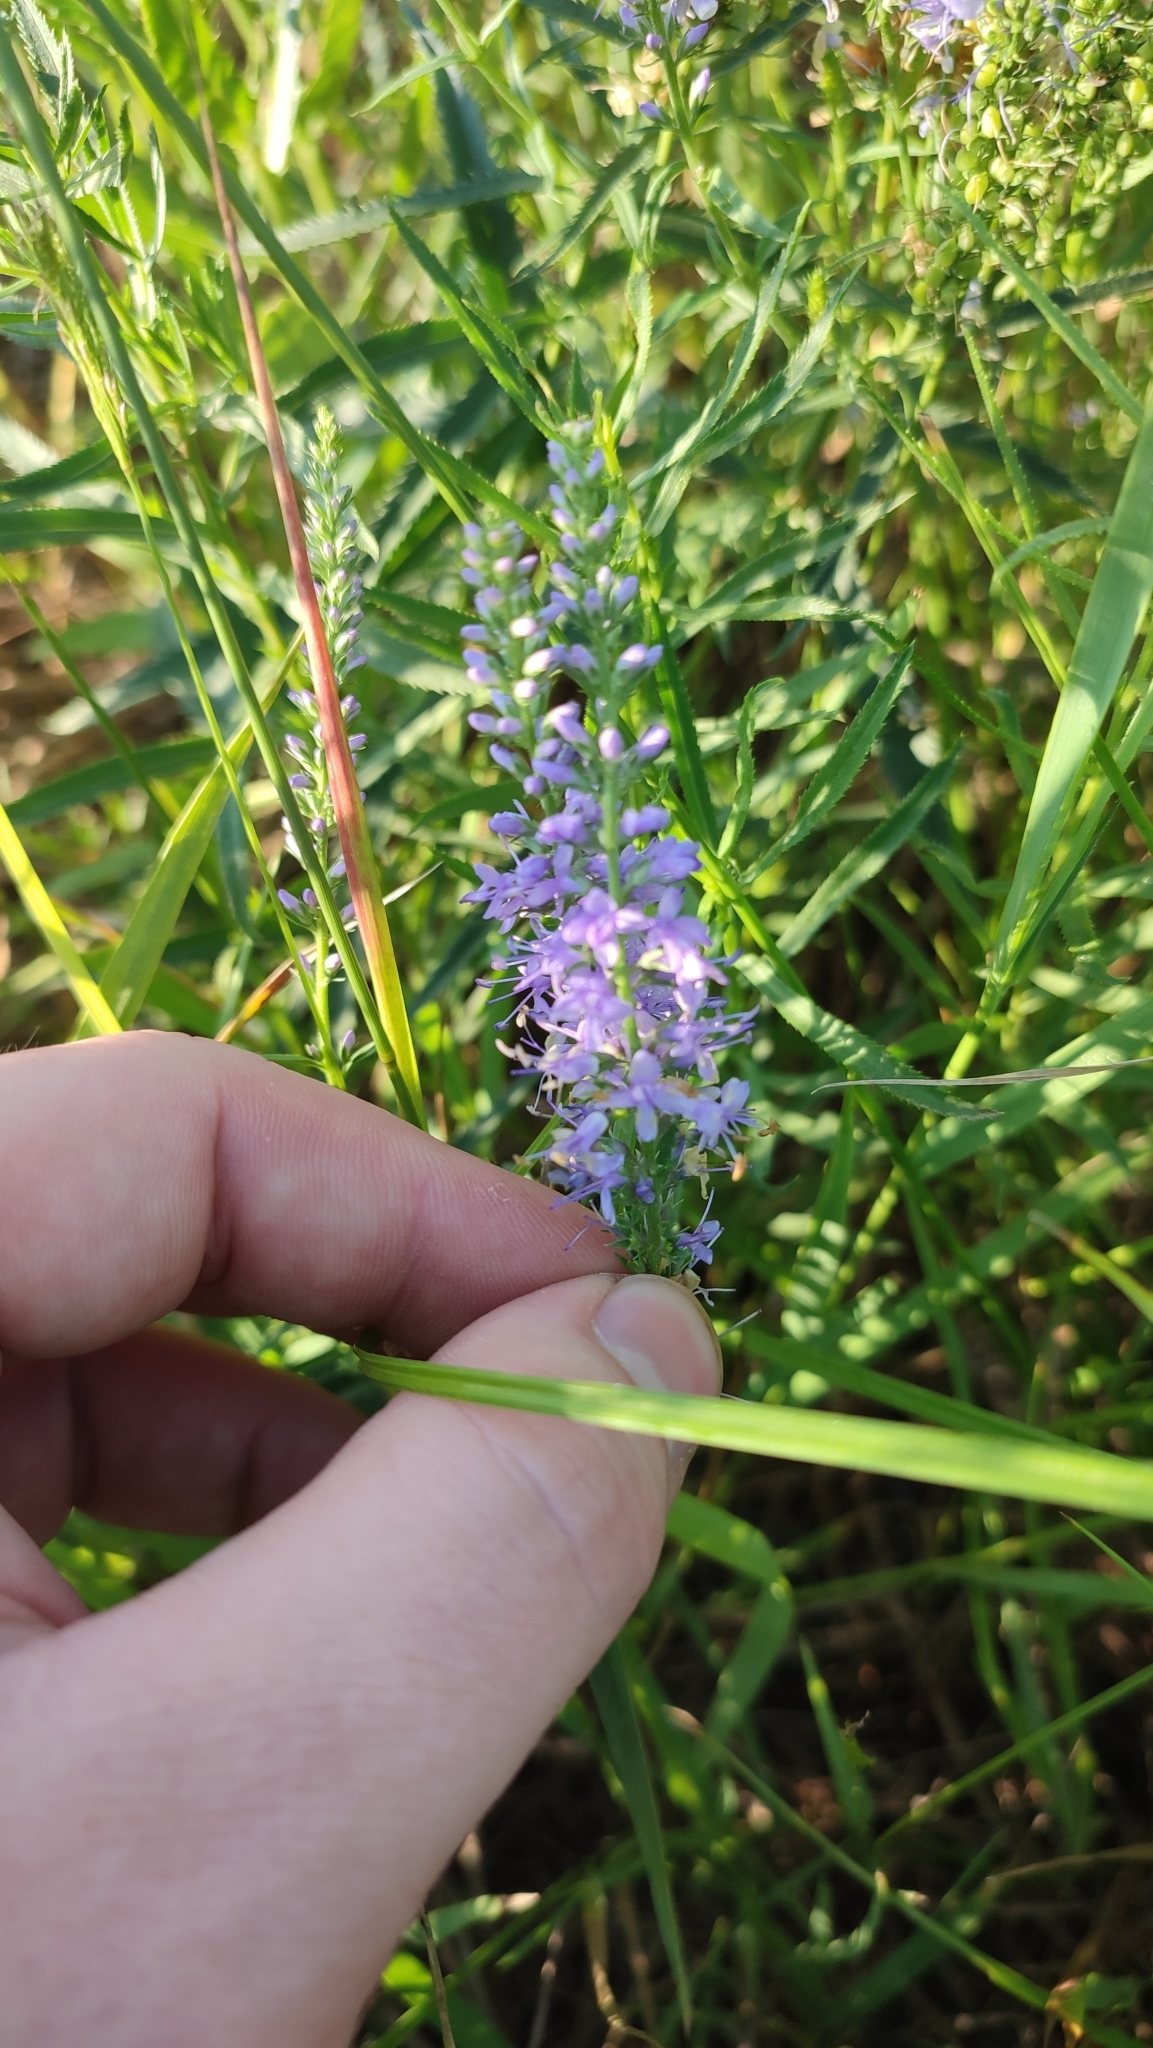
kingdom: Plantae
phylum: Tracheophyta
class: Magnoliopsida
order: Lamiales
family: Plantaginaceae
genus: Veronica
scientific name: Veronica longifolia
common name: Garden speedwell
